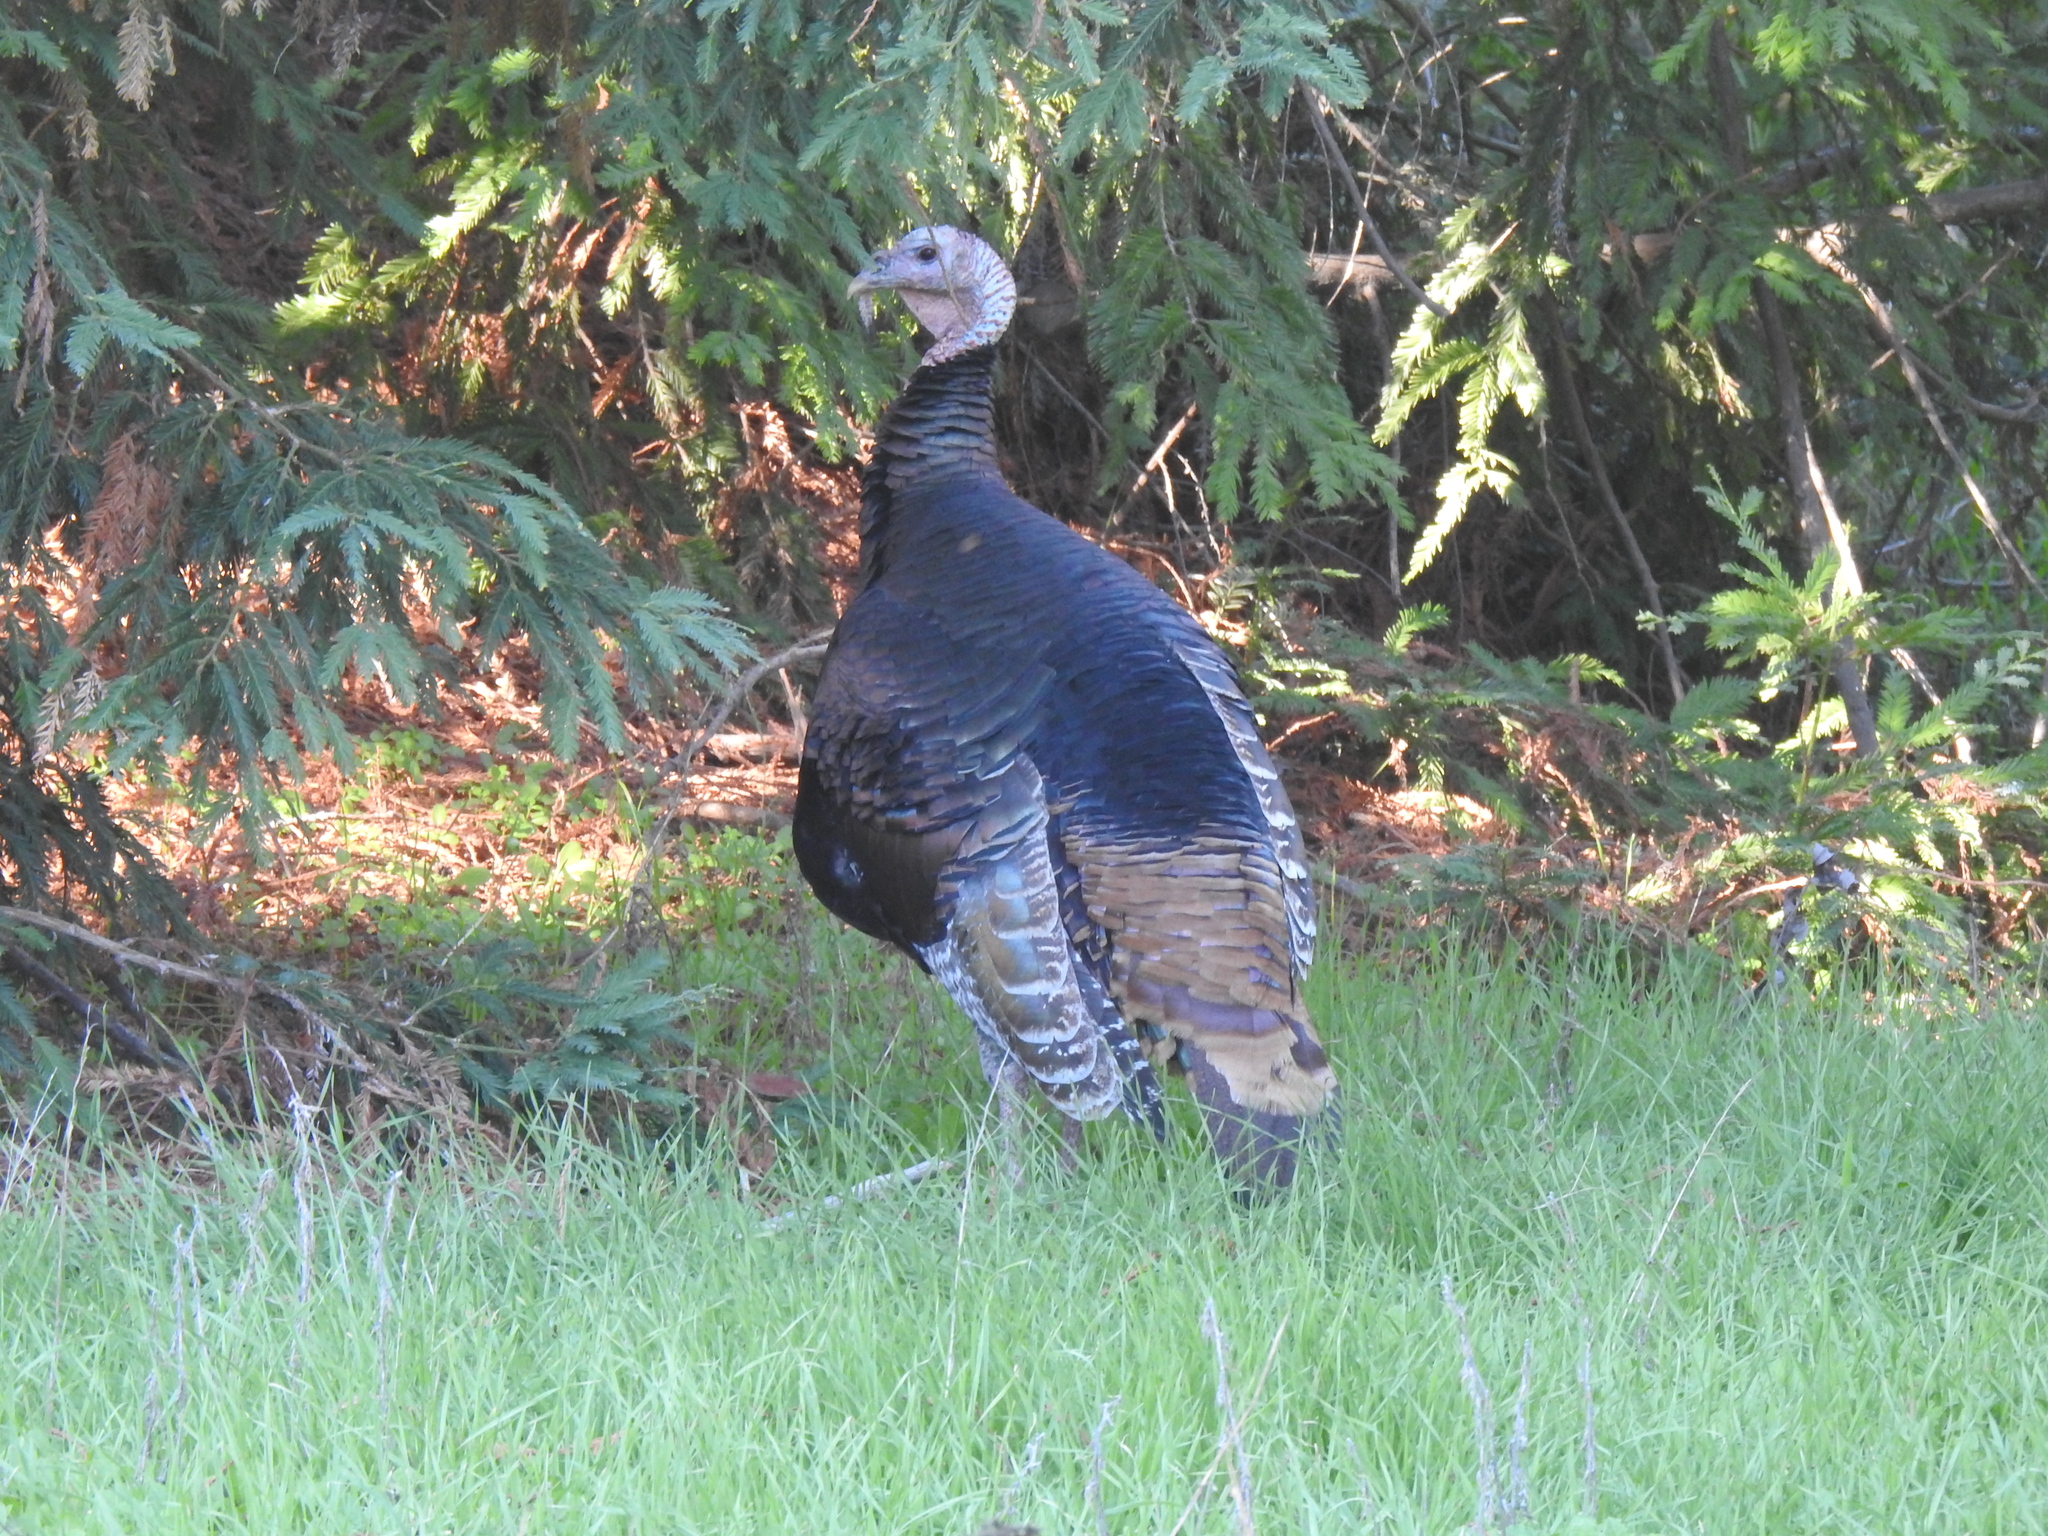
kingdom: Animalia
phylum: Chordata
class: Aves
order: Galliformes
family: Phasianidae
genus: Meleagris
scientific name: Meleagris gallopavo
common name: Wild turkey
